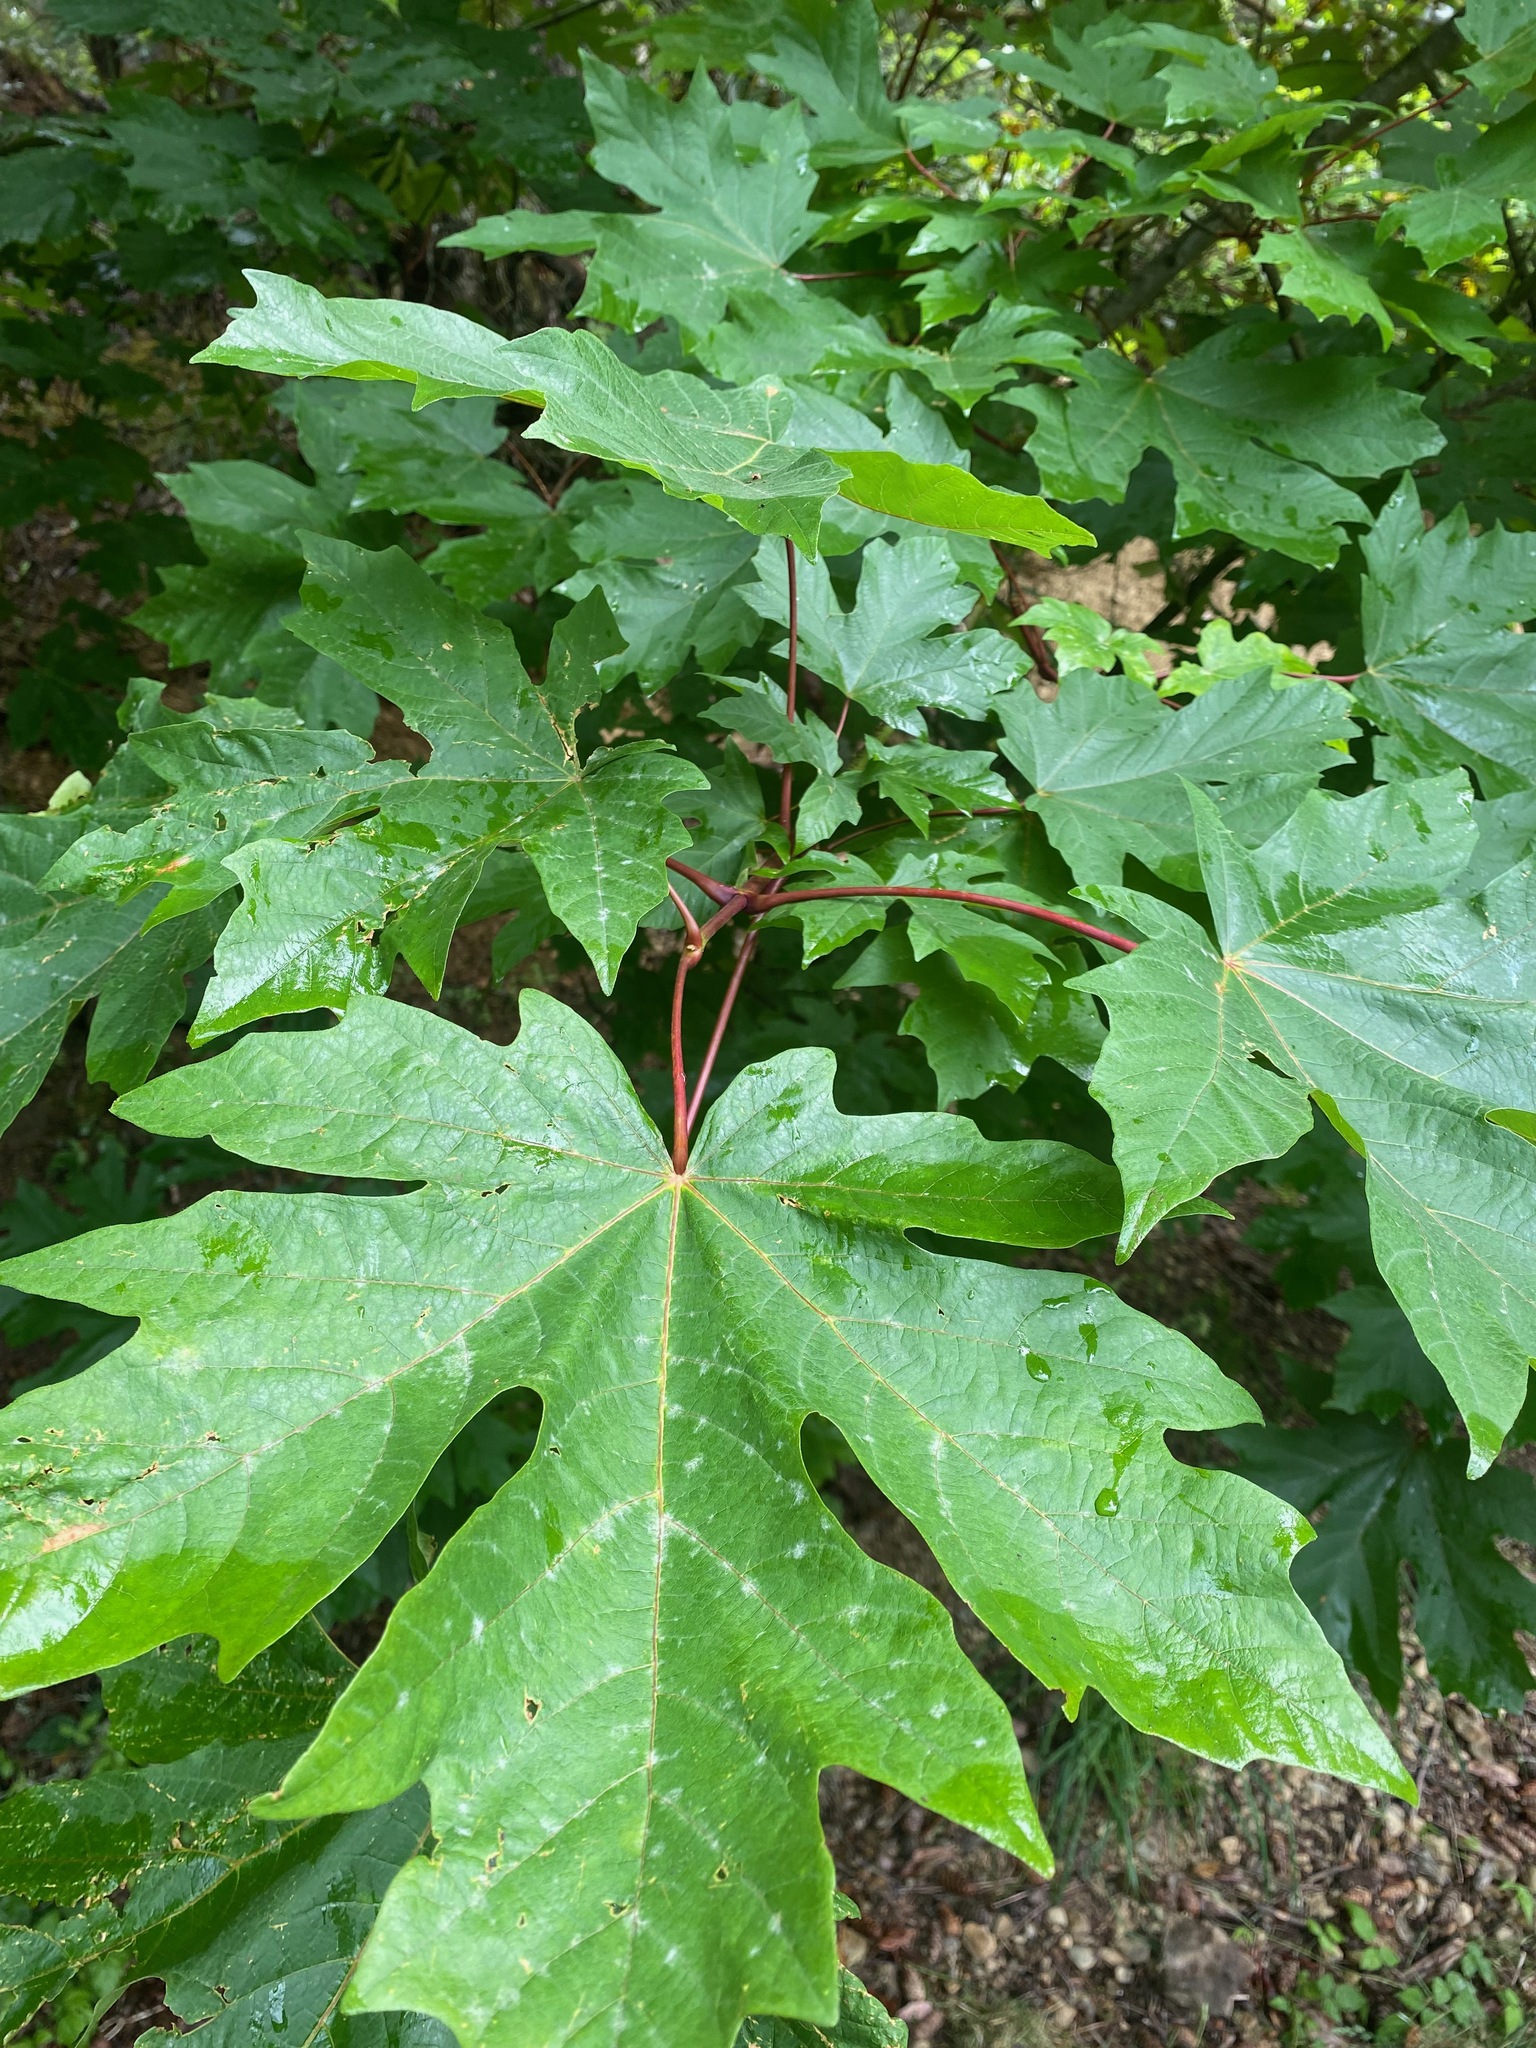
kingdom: Plantae
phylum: Tracheophyta
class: Magnoliopsida
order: Sapindales
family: Sapindaceae
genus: Acer
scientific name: Acer macrophyllum
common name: Oregon maple
